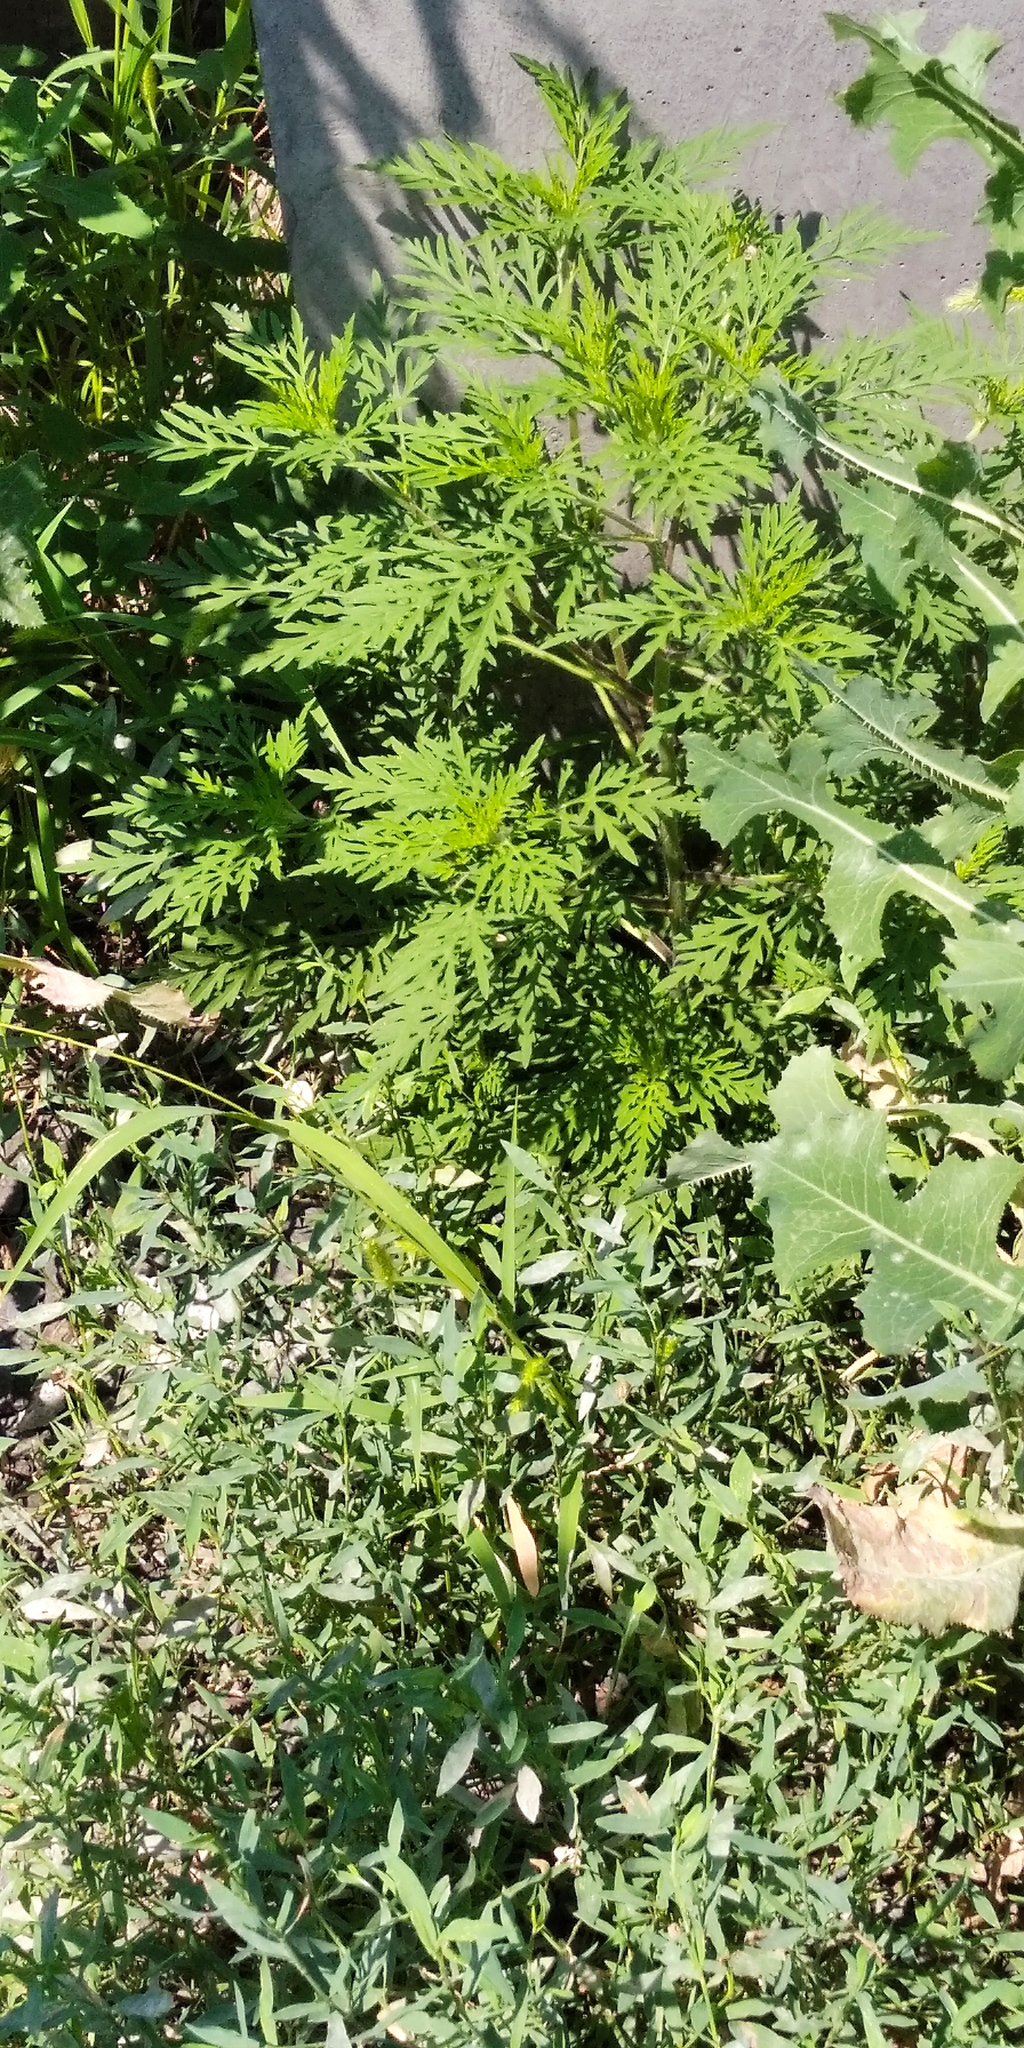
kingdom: Plantae
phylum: Tracheophyta
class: Magnoliopsida
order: Asterales
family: Asteraceae
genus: Ambrosia
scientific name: Ambrosia artemisiifolia
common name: Annual ragweed
